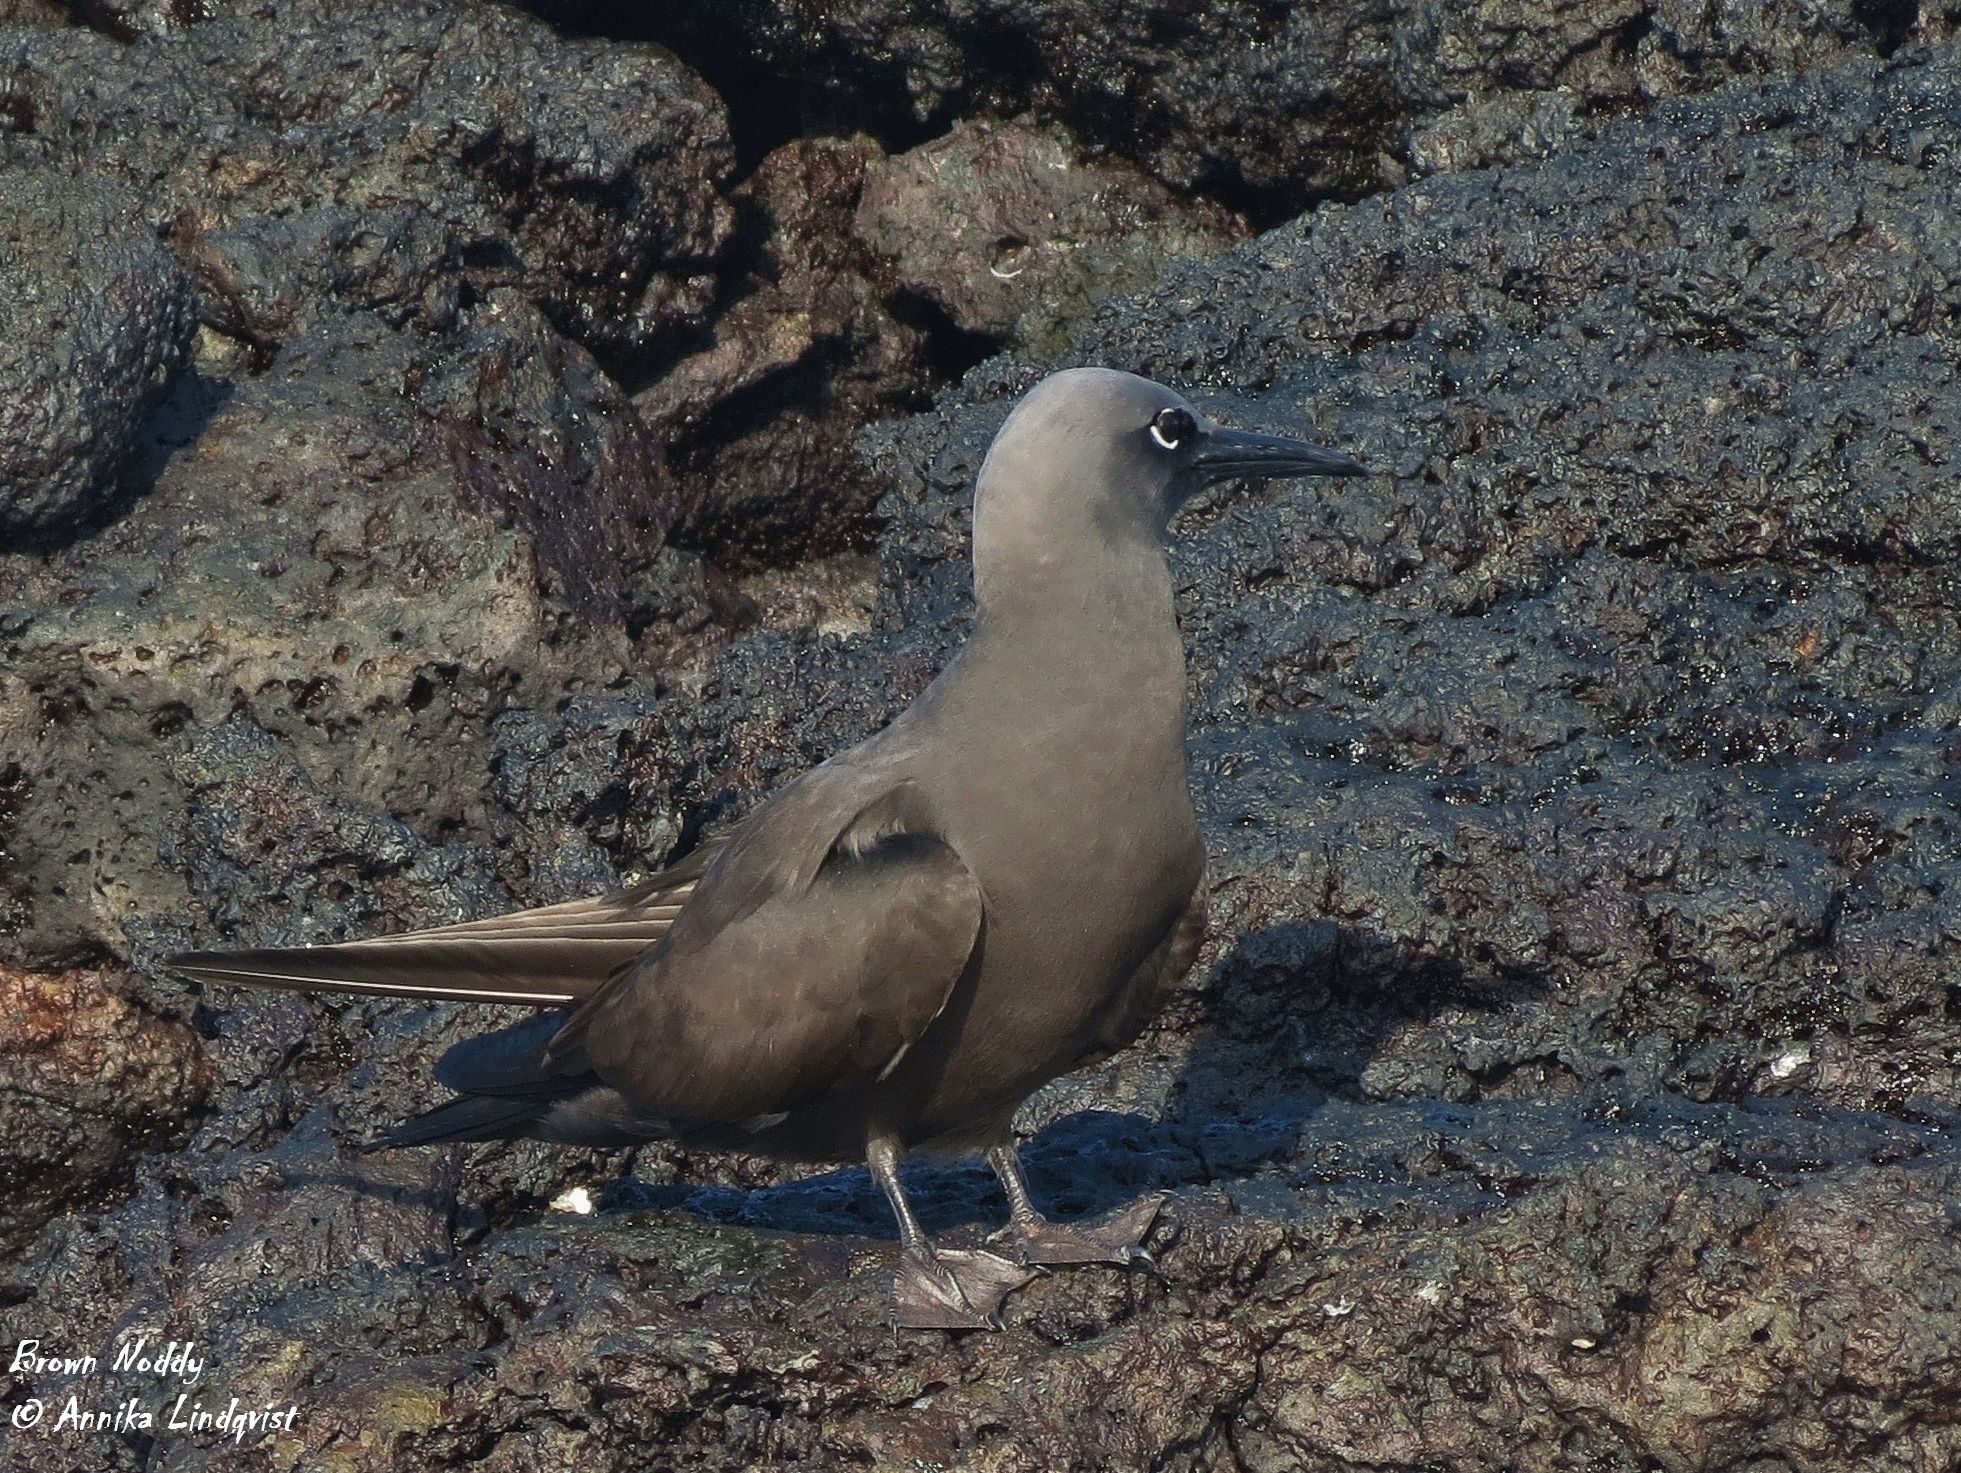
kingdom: Animalia
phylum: Chordata
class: Aves
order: Charadriiformes
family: Laridae
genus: Anous
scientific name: Anous stolidus
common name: Brown noddy
